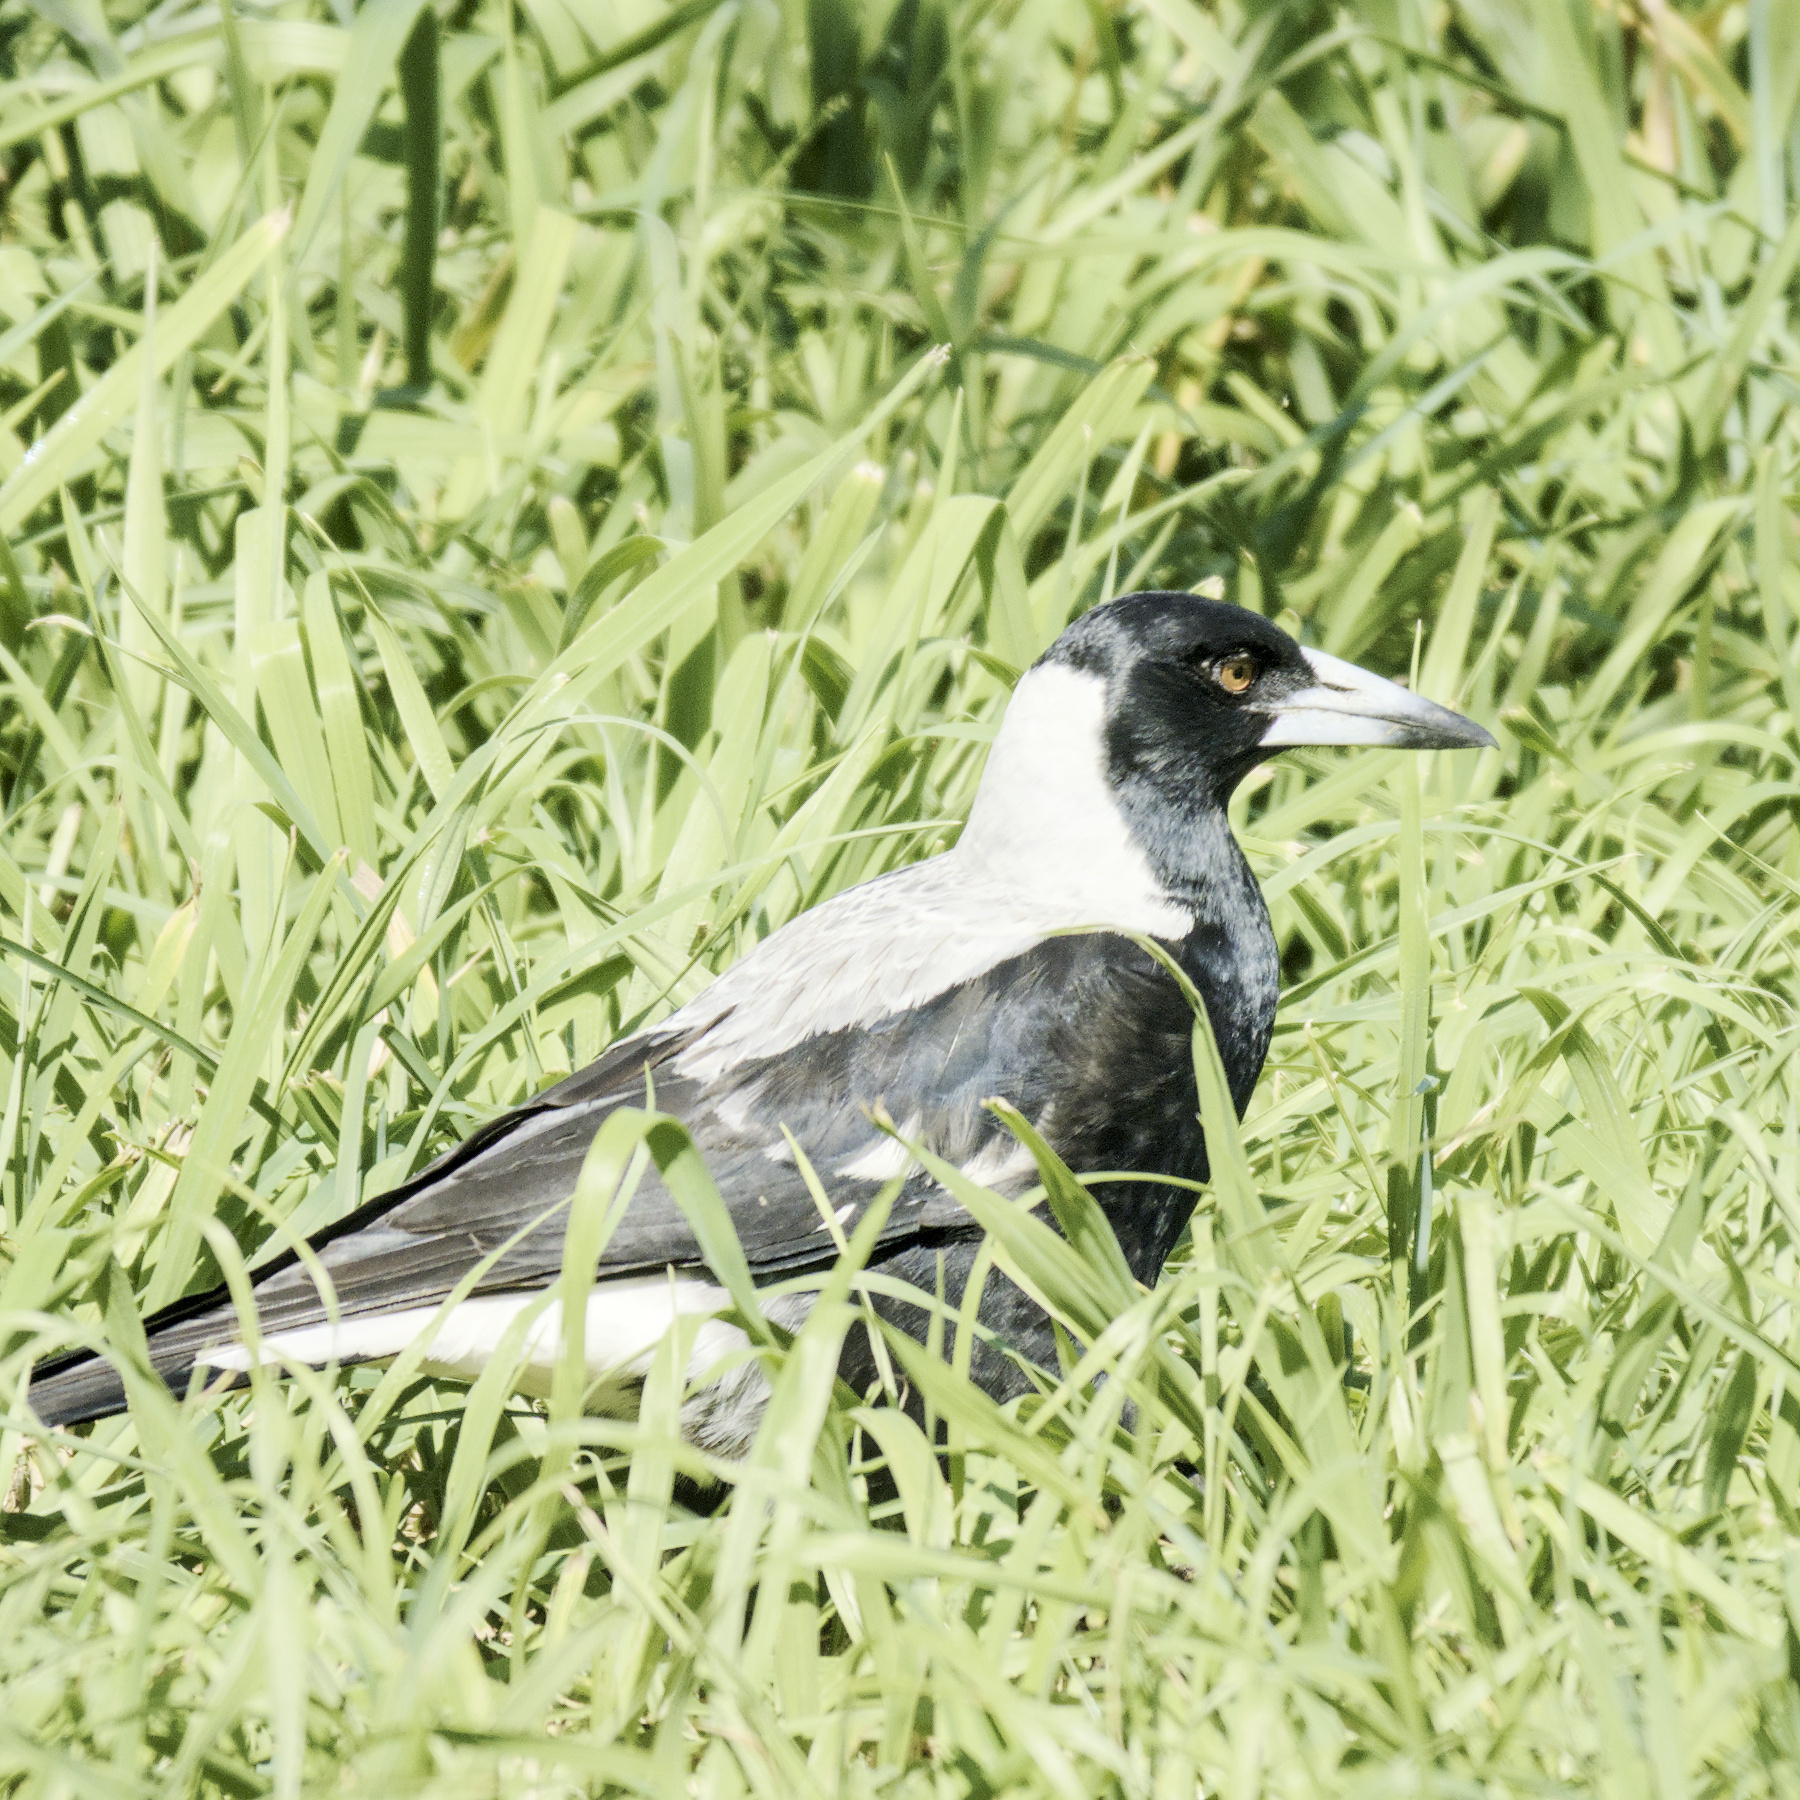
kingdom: Animalia
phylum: Chordata
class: Aves
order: Passeriformes
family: Cracticidae
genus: Gymnorhina
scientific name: Gymnorhina tibicen
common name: Australian magpie
